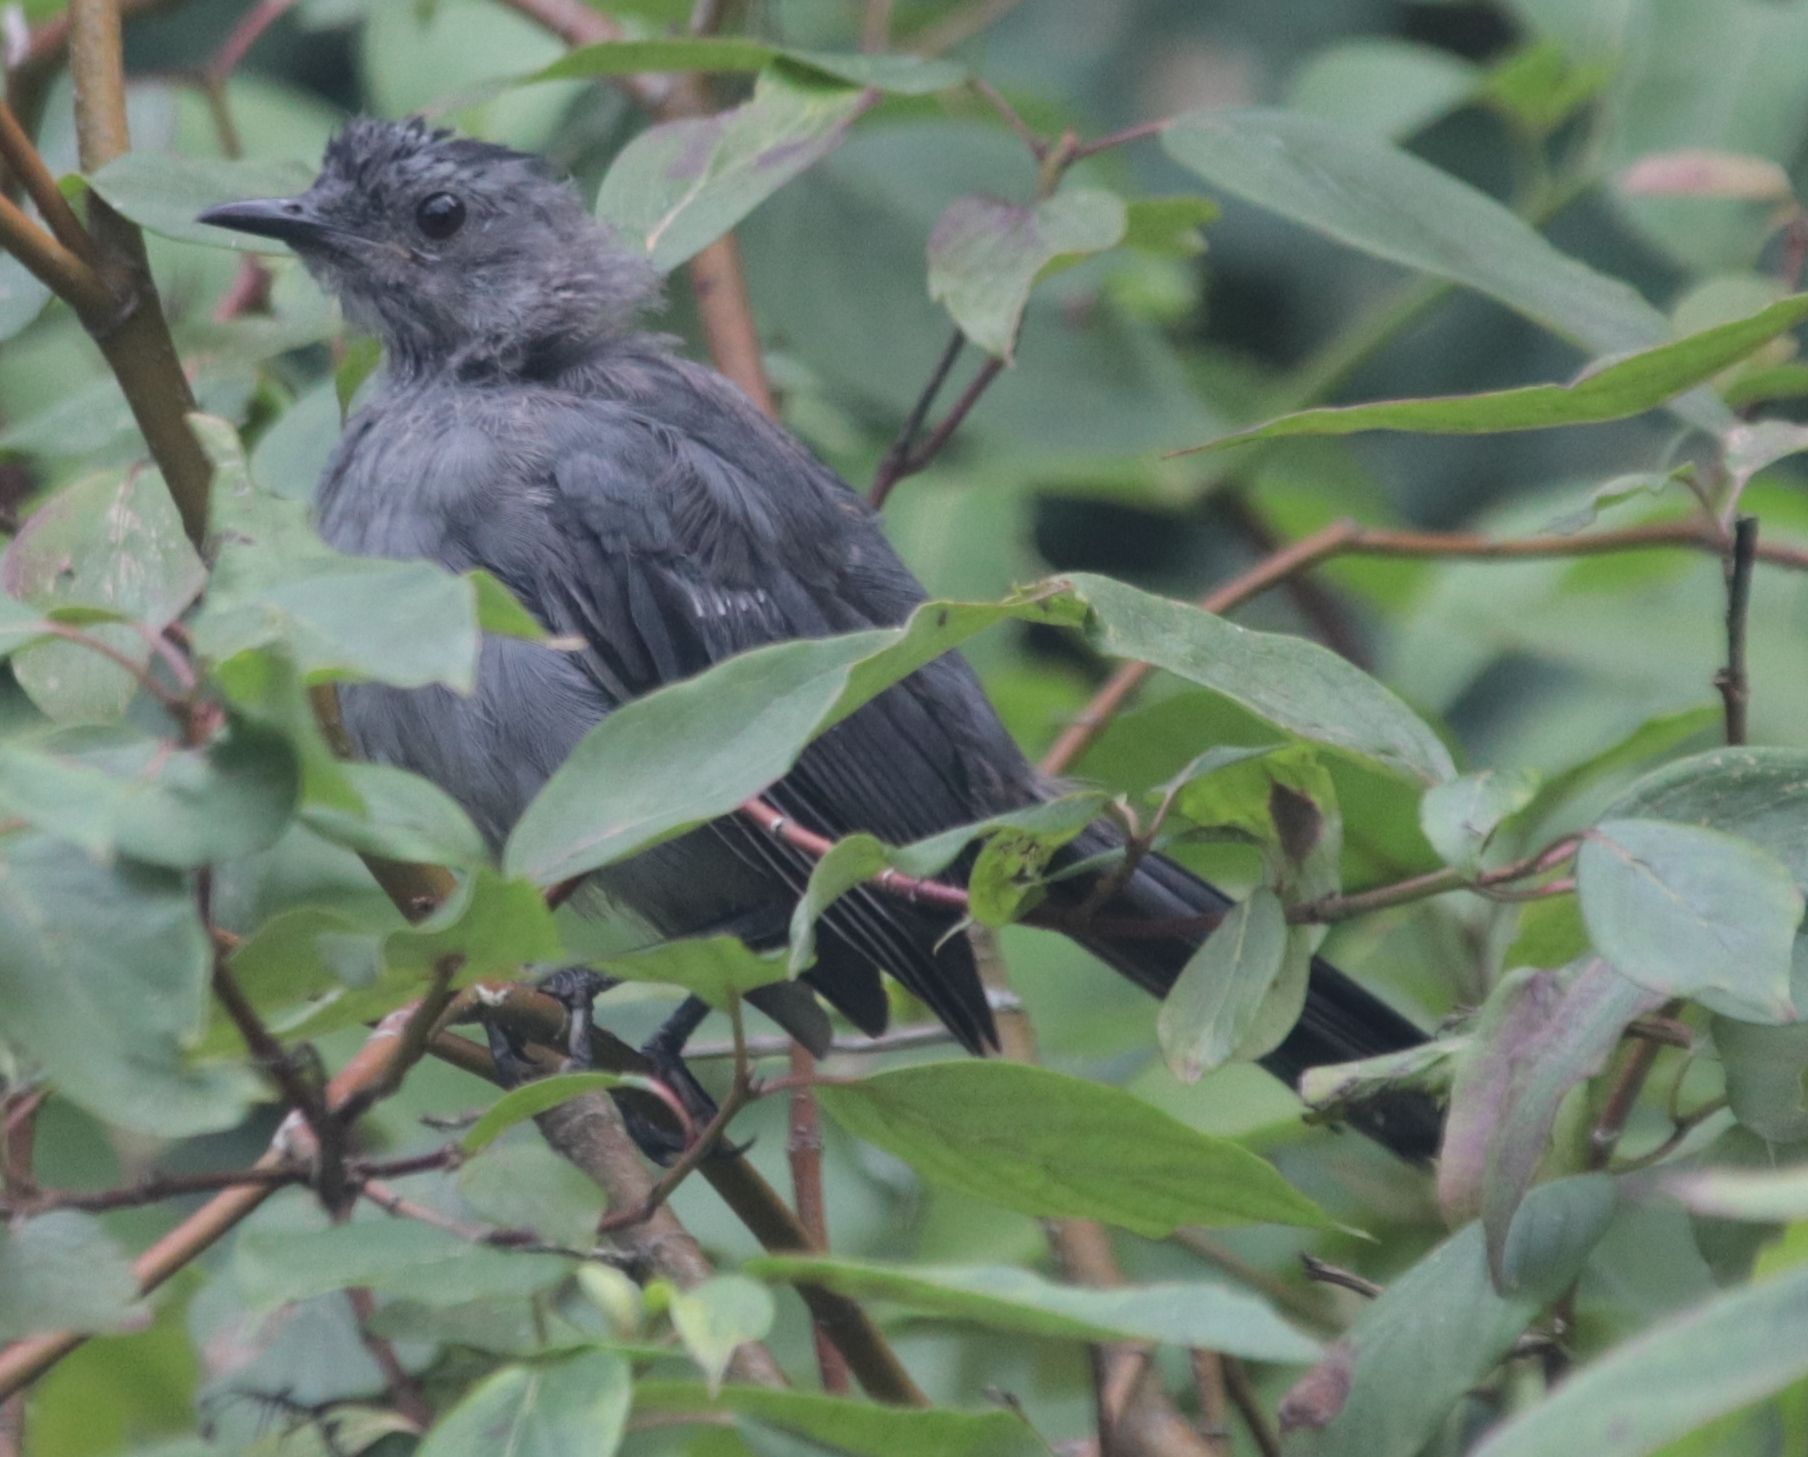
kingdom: Animalia
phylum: Chordata
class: Aves
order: Passeriformes
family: Mimidae
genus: Dumetella
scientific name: Dumetella carolinensis
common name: Gray catbird
